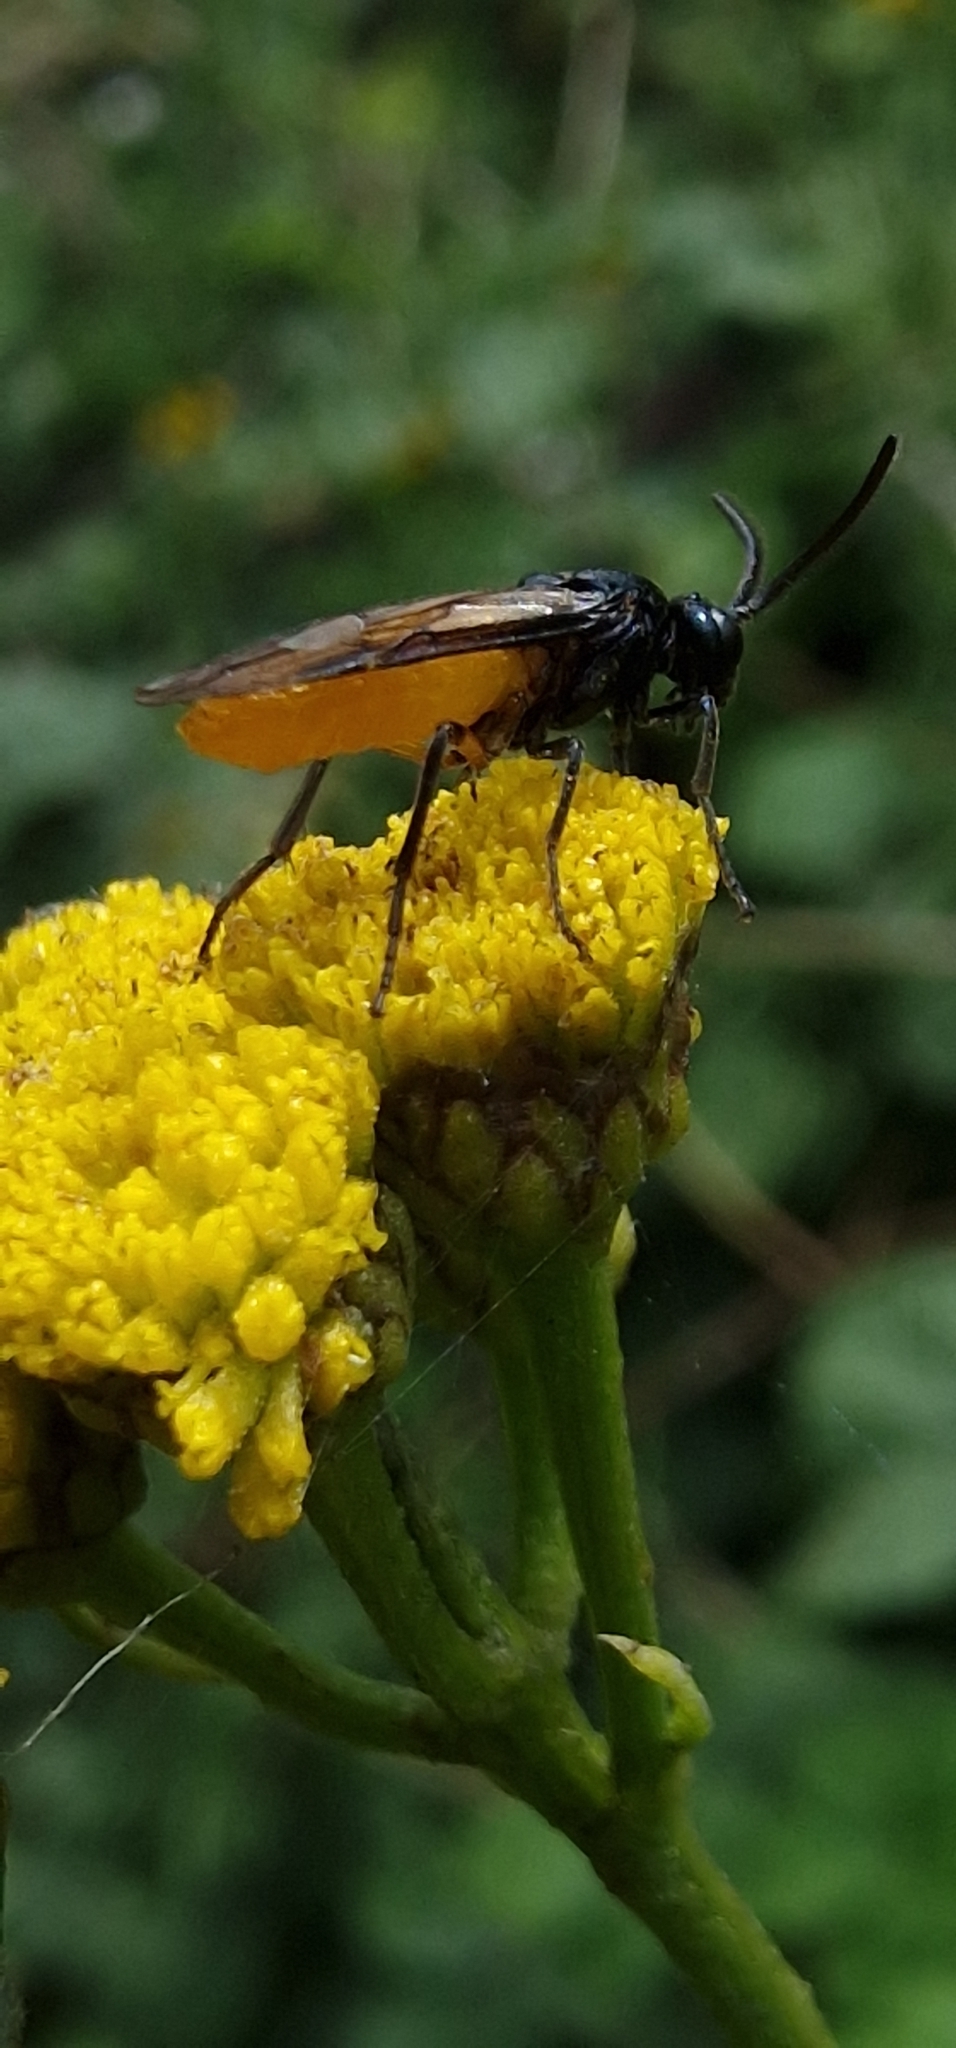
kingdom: Animalia
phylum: Arthropoda
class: Insecta
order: Hymenoptera
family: Argidae
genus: Arge
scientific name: Arge pagana
